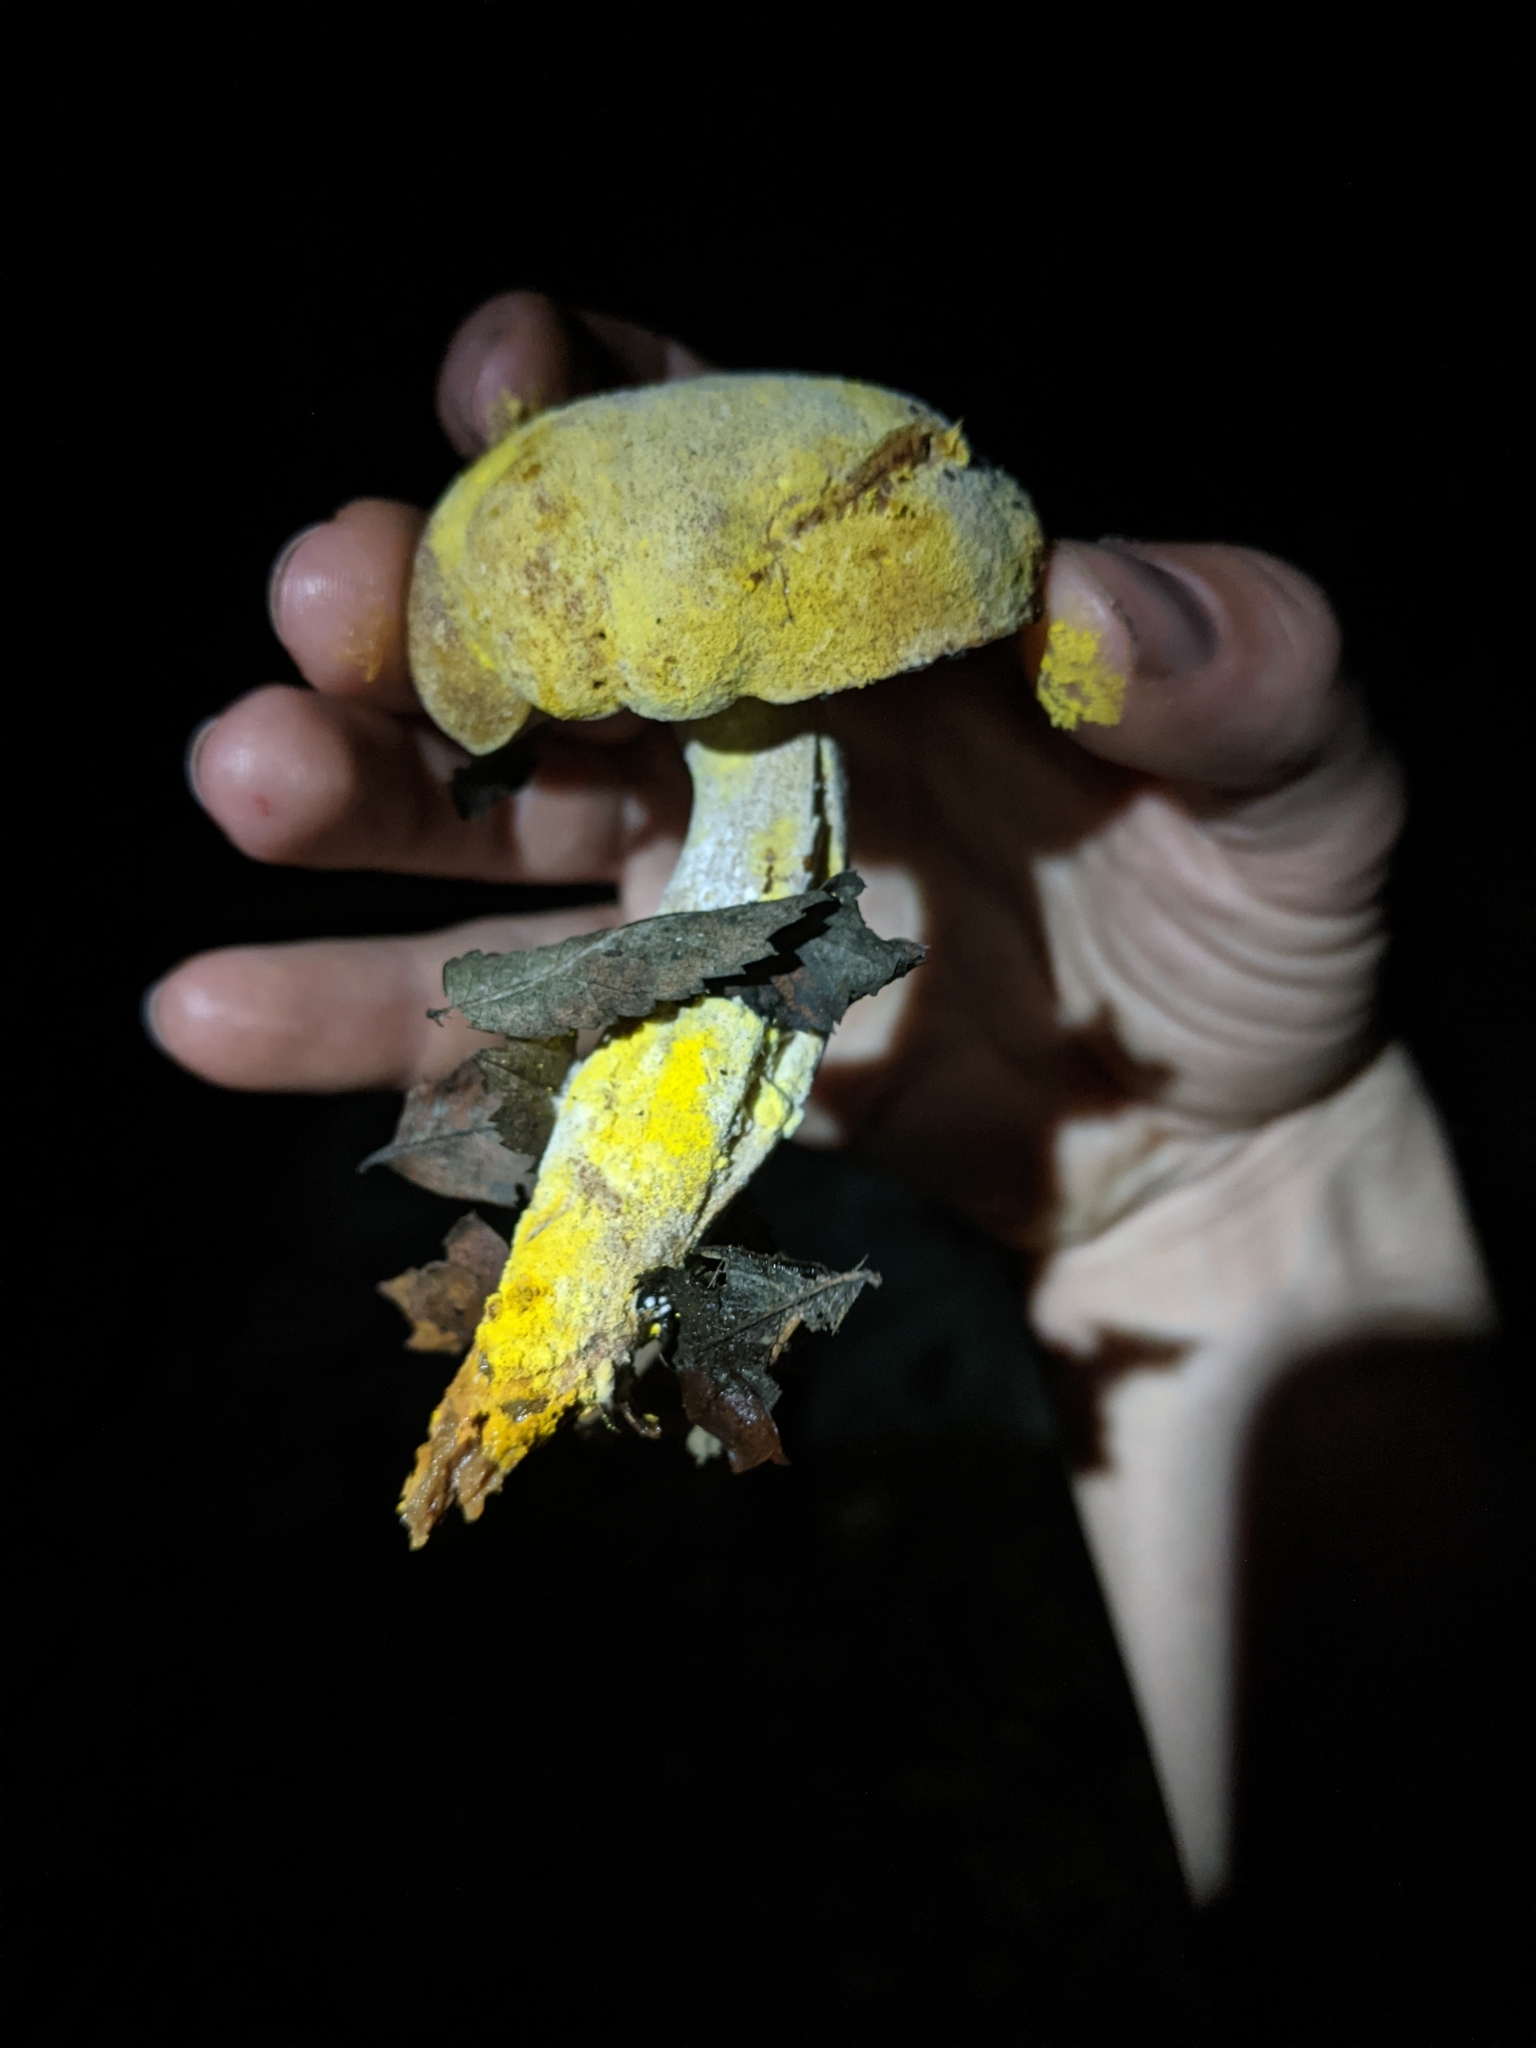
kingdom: Fungi
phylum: Ascomycota
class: Sordariomycetes
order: Hypocreales
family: Hypocreaceae
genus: Hypomyces
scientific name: Hypomyces chrysospermus
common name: Bolete mould
